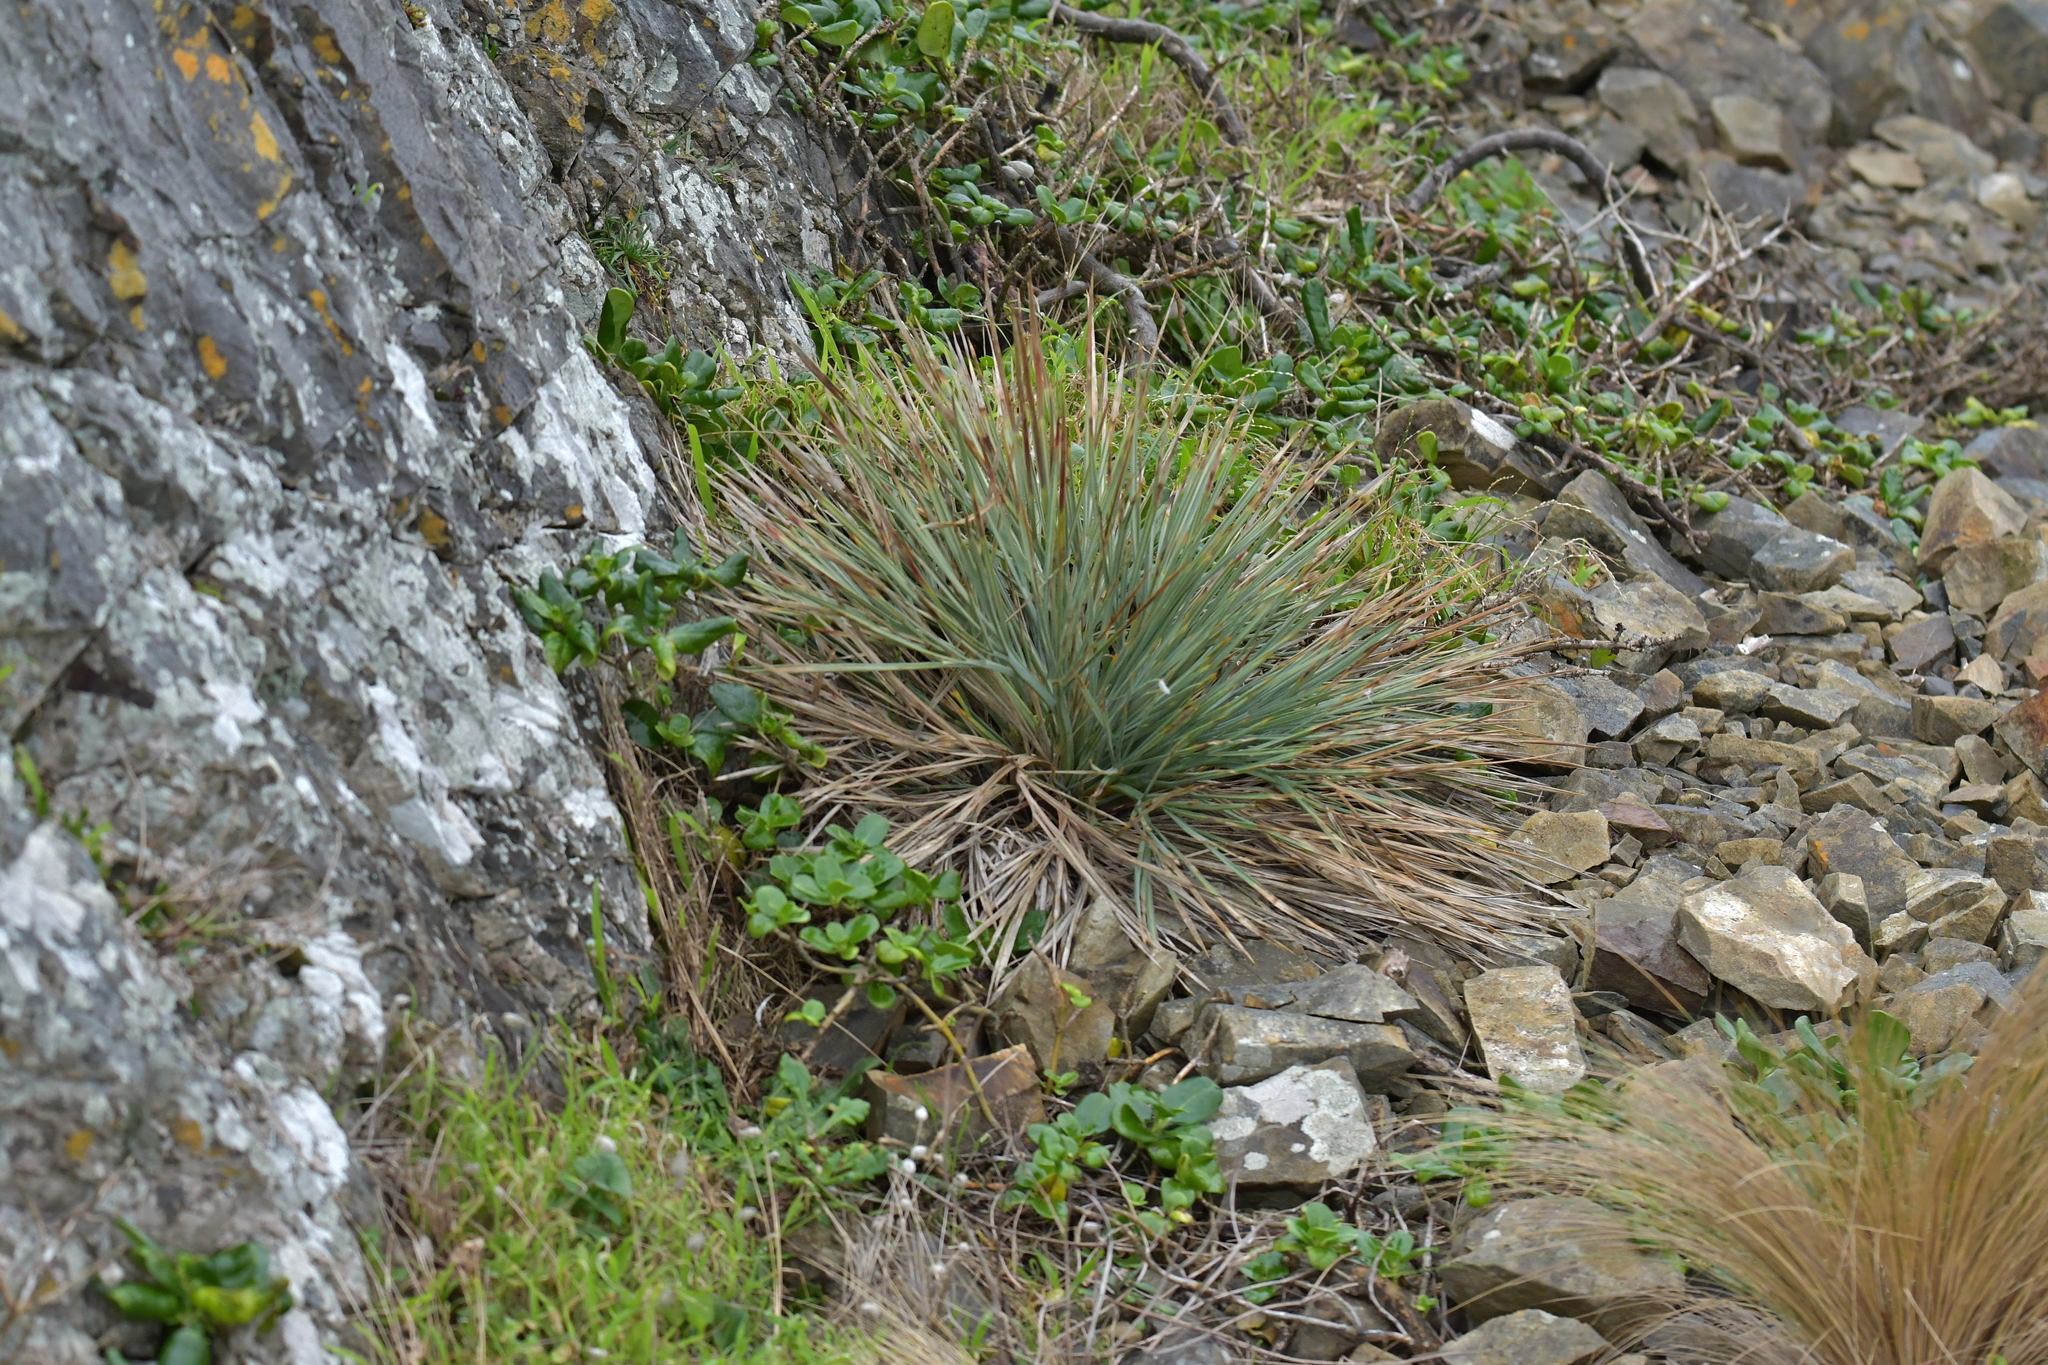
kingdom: Plantae
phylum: Tracheophyta
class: Magnoliopsida
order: Apiales
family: Apiaceae
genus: Aciphylla
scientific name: Aciphylla squarrosa
